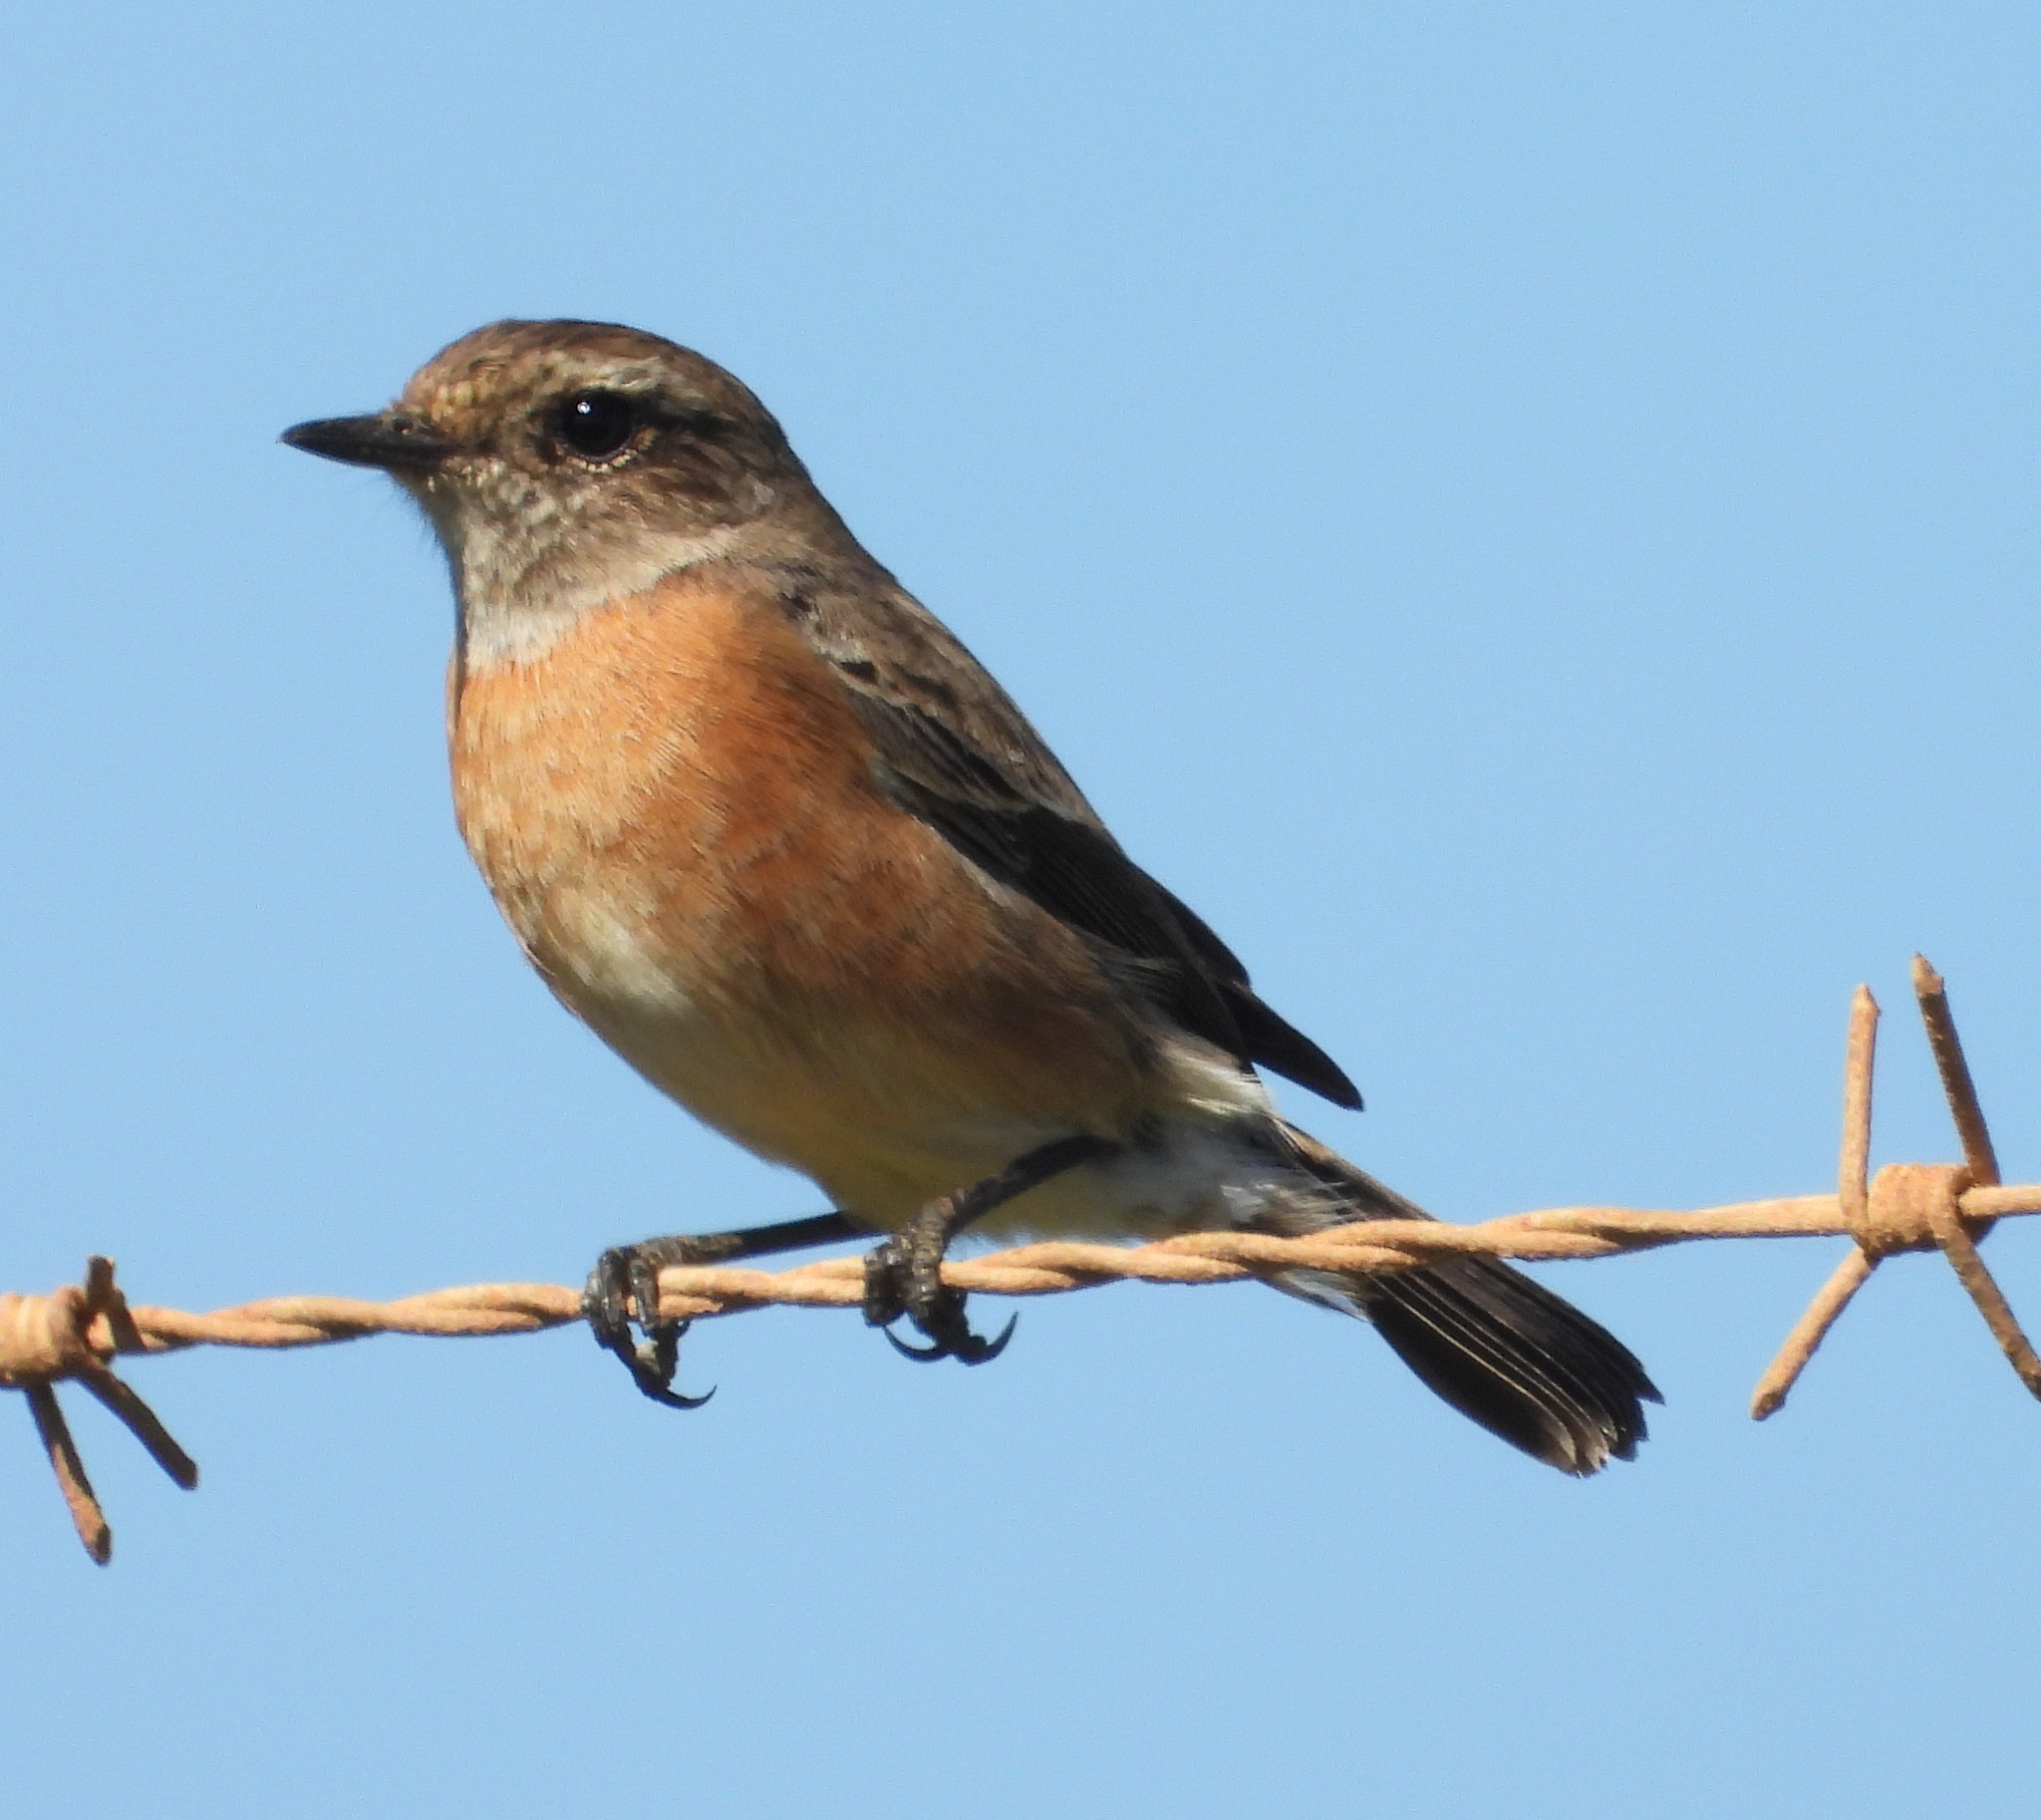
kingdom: Animalia
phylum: Chordata
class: Aves
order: Passeriformes
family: Muscicapidae
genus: Saxicola
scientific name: Saxicola torquatus
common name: African stonechat
